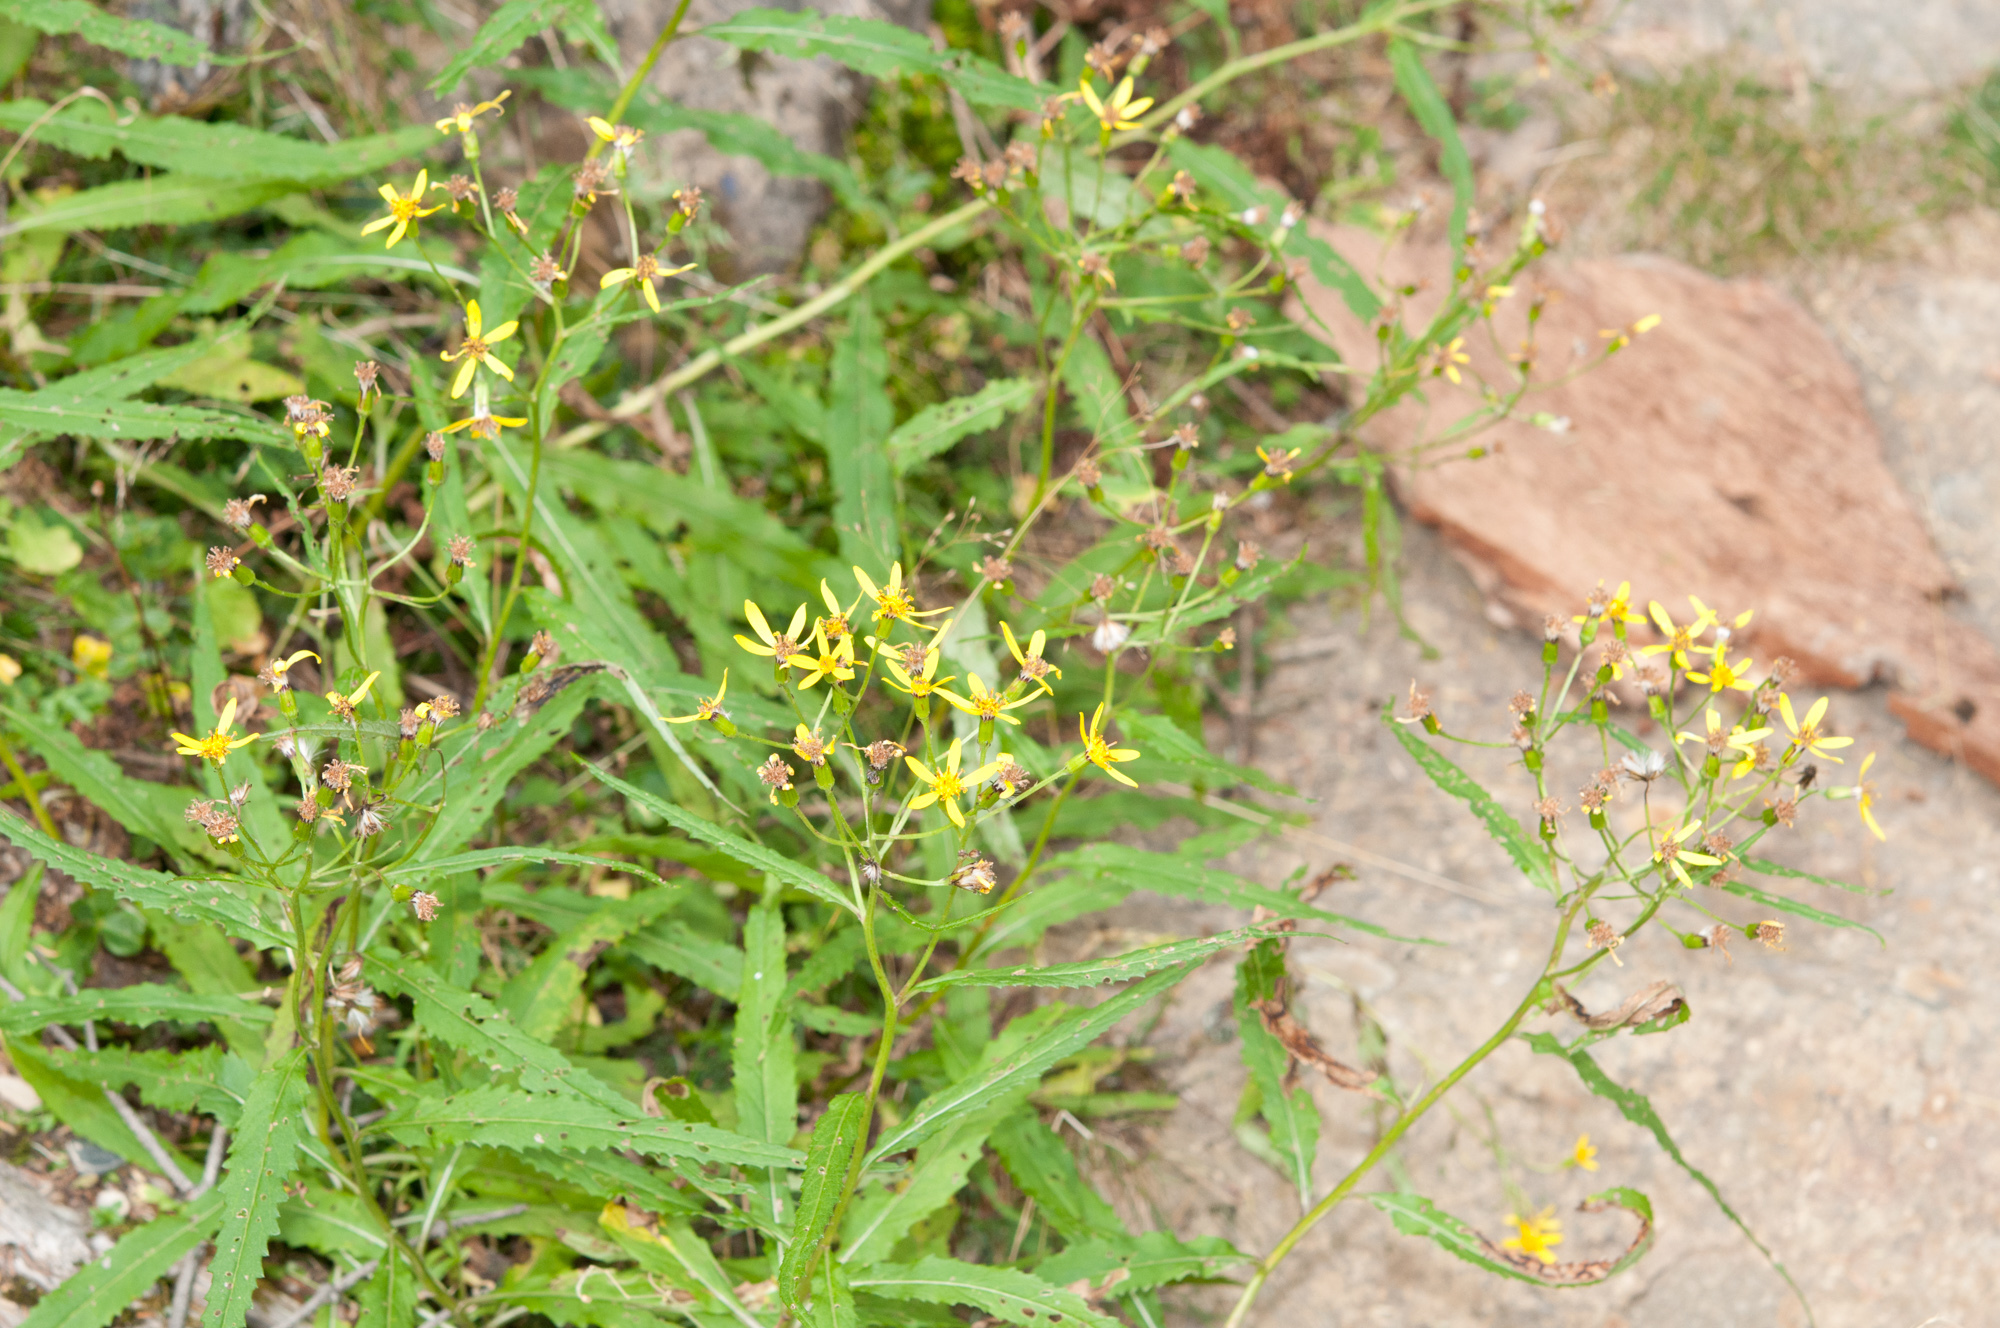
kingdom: Plantae
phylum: Tracheophyta
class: Magnoliopsida
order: Asterales
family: Asteraceae
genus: Jacobaea
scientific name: Jacobaea morrisonensis
